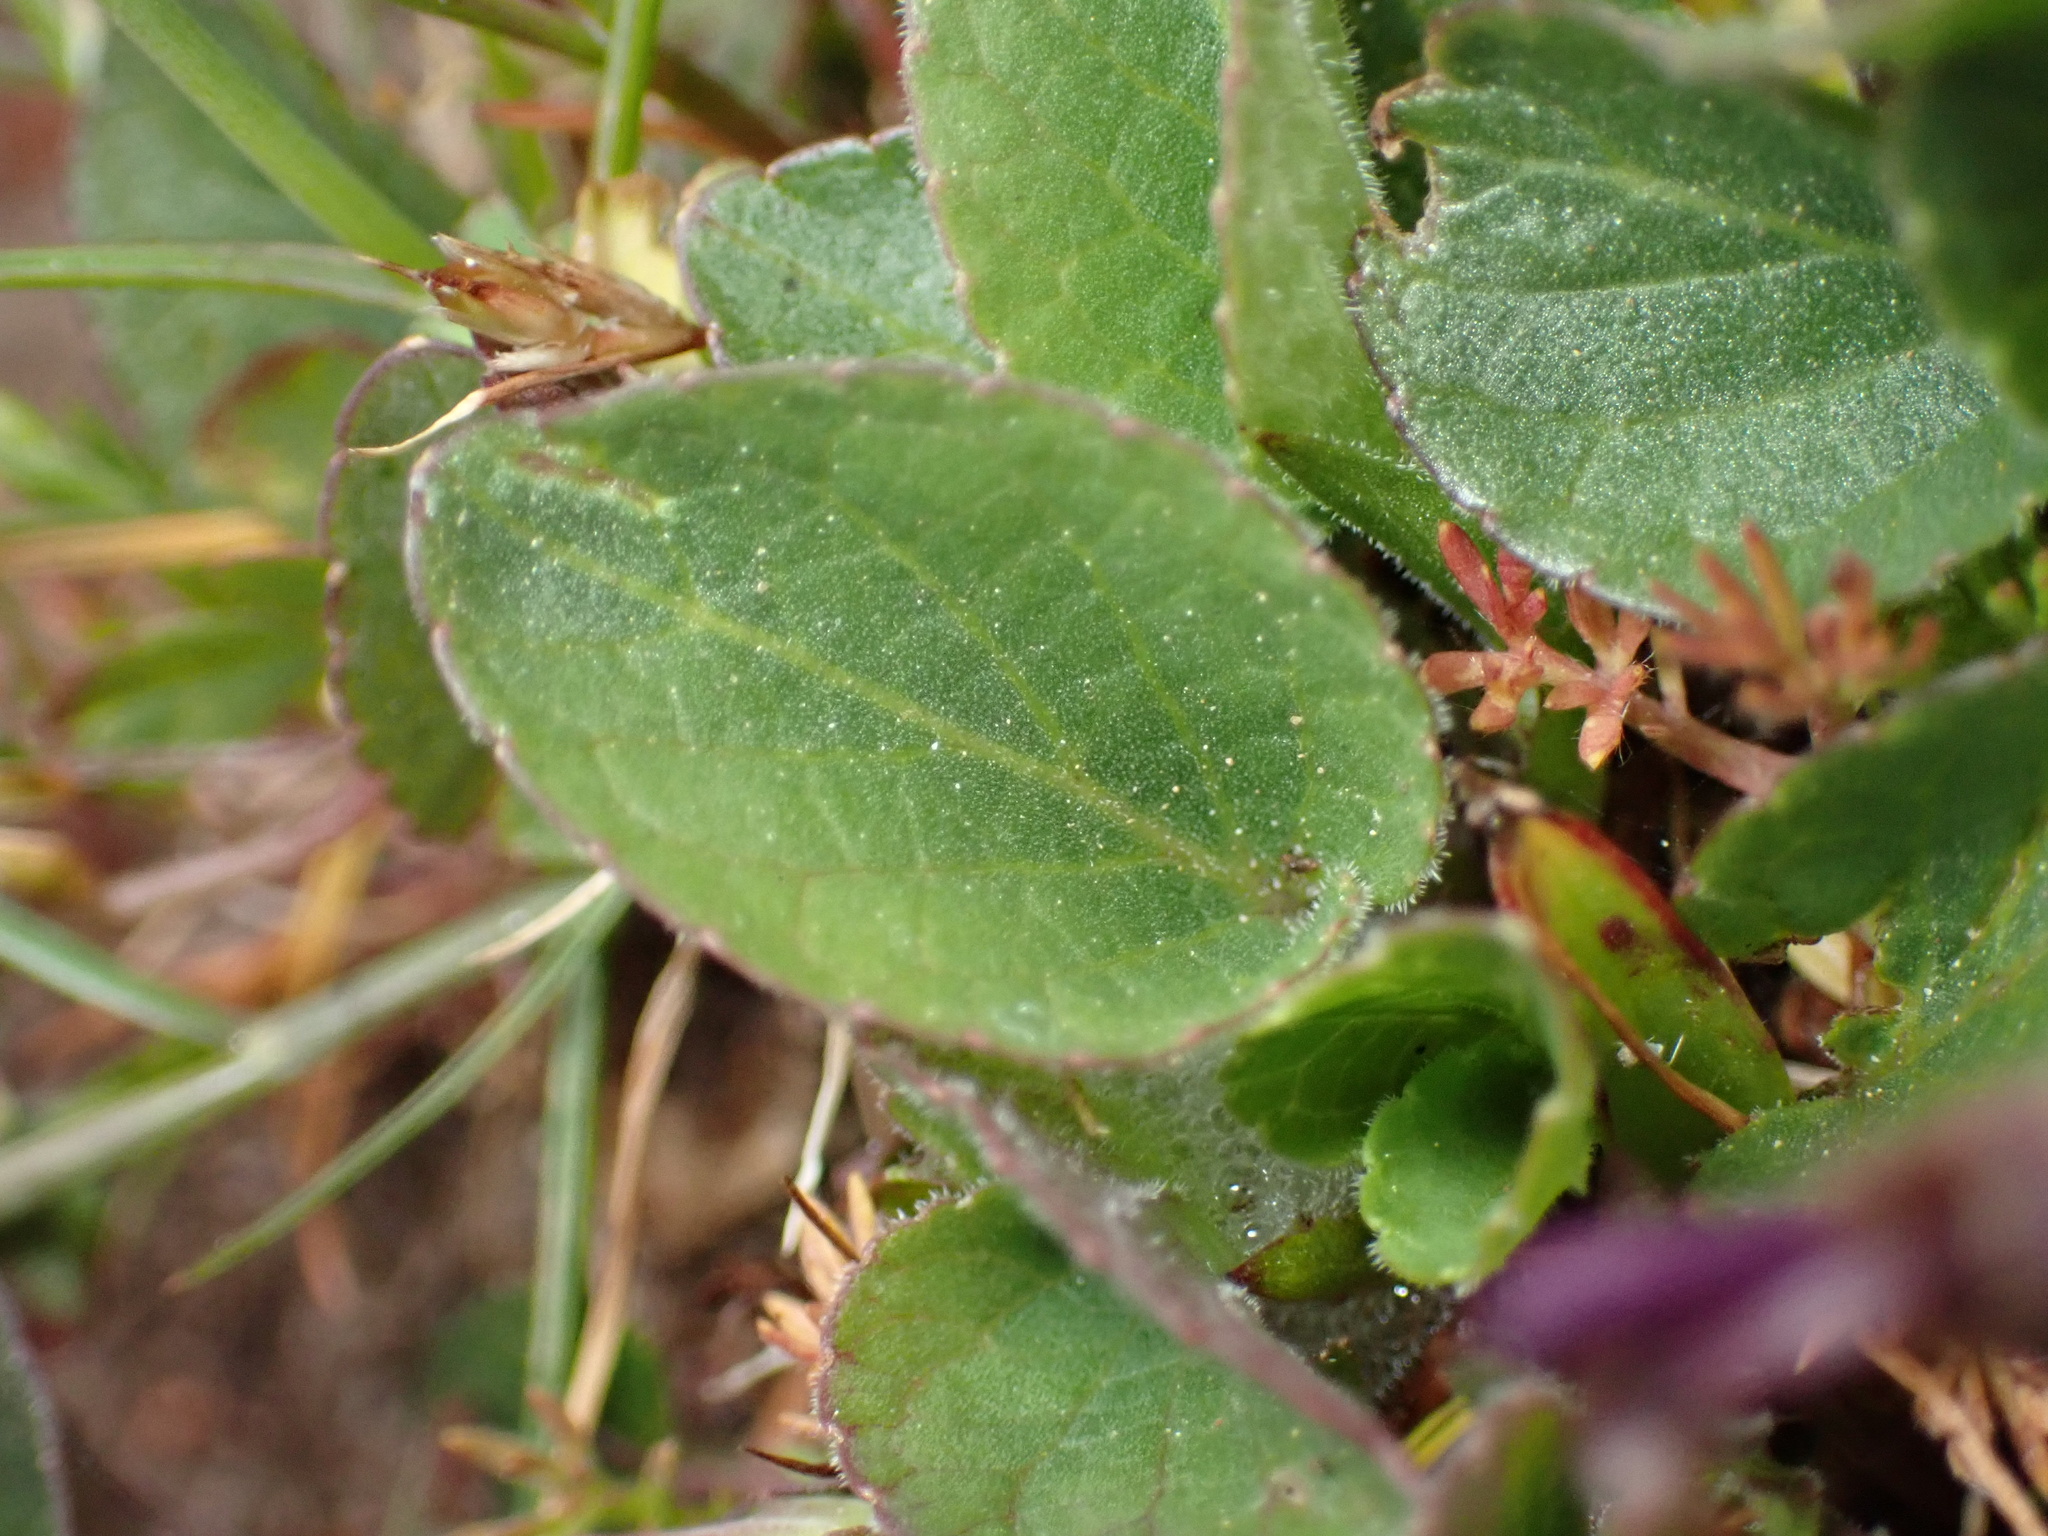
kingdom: Plantae
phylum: Tracheophyta
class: Magnoliopsida
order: Malpighiales
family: Violaceae
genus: Viola
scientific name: Viola adunca
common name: Sand violet
